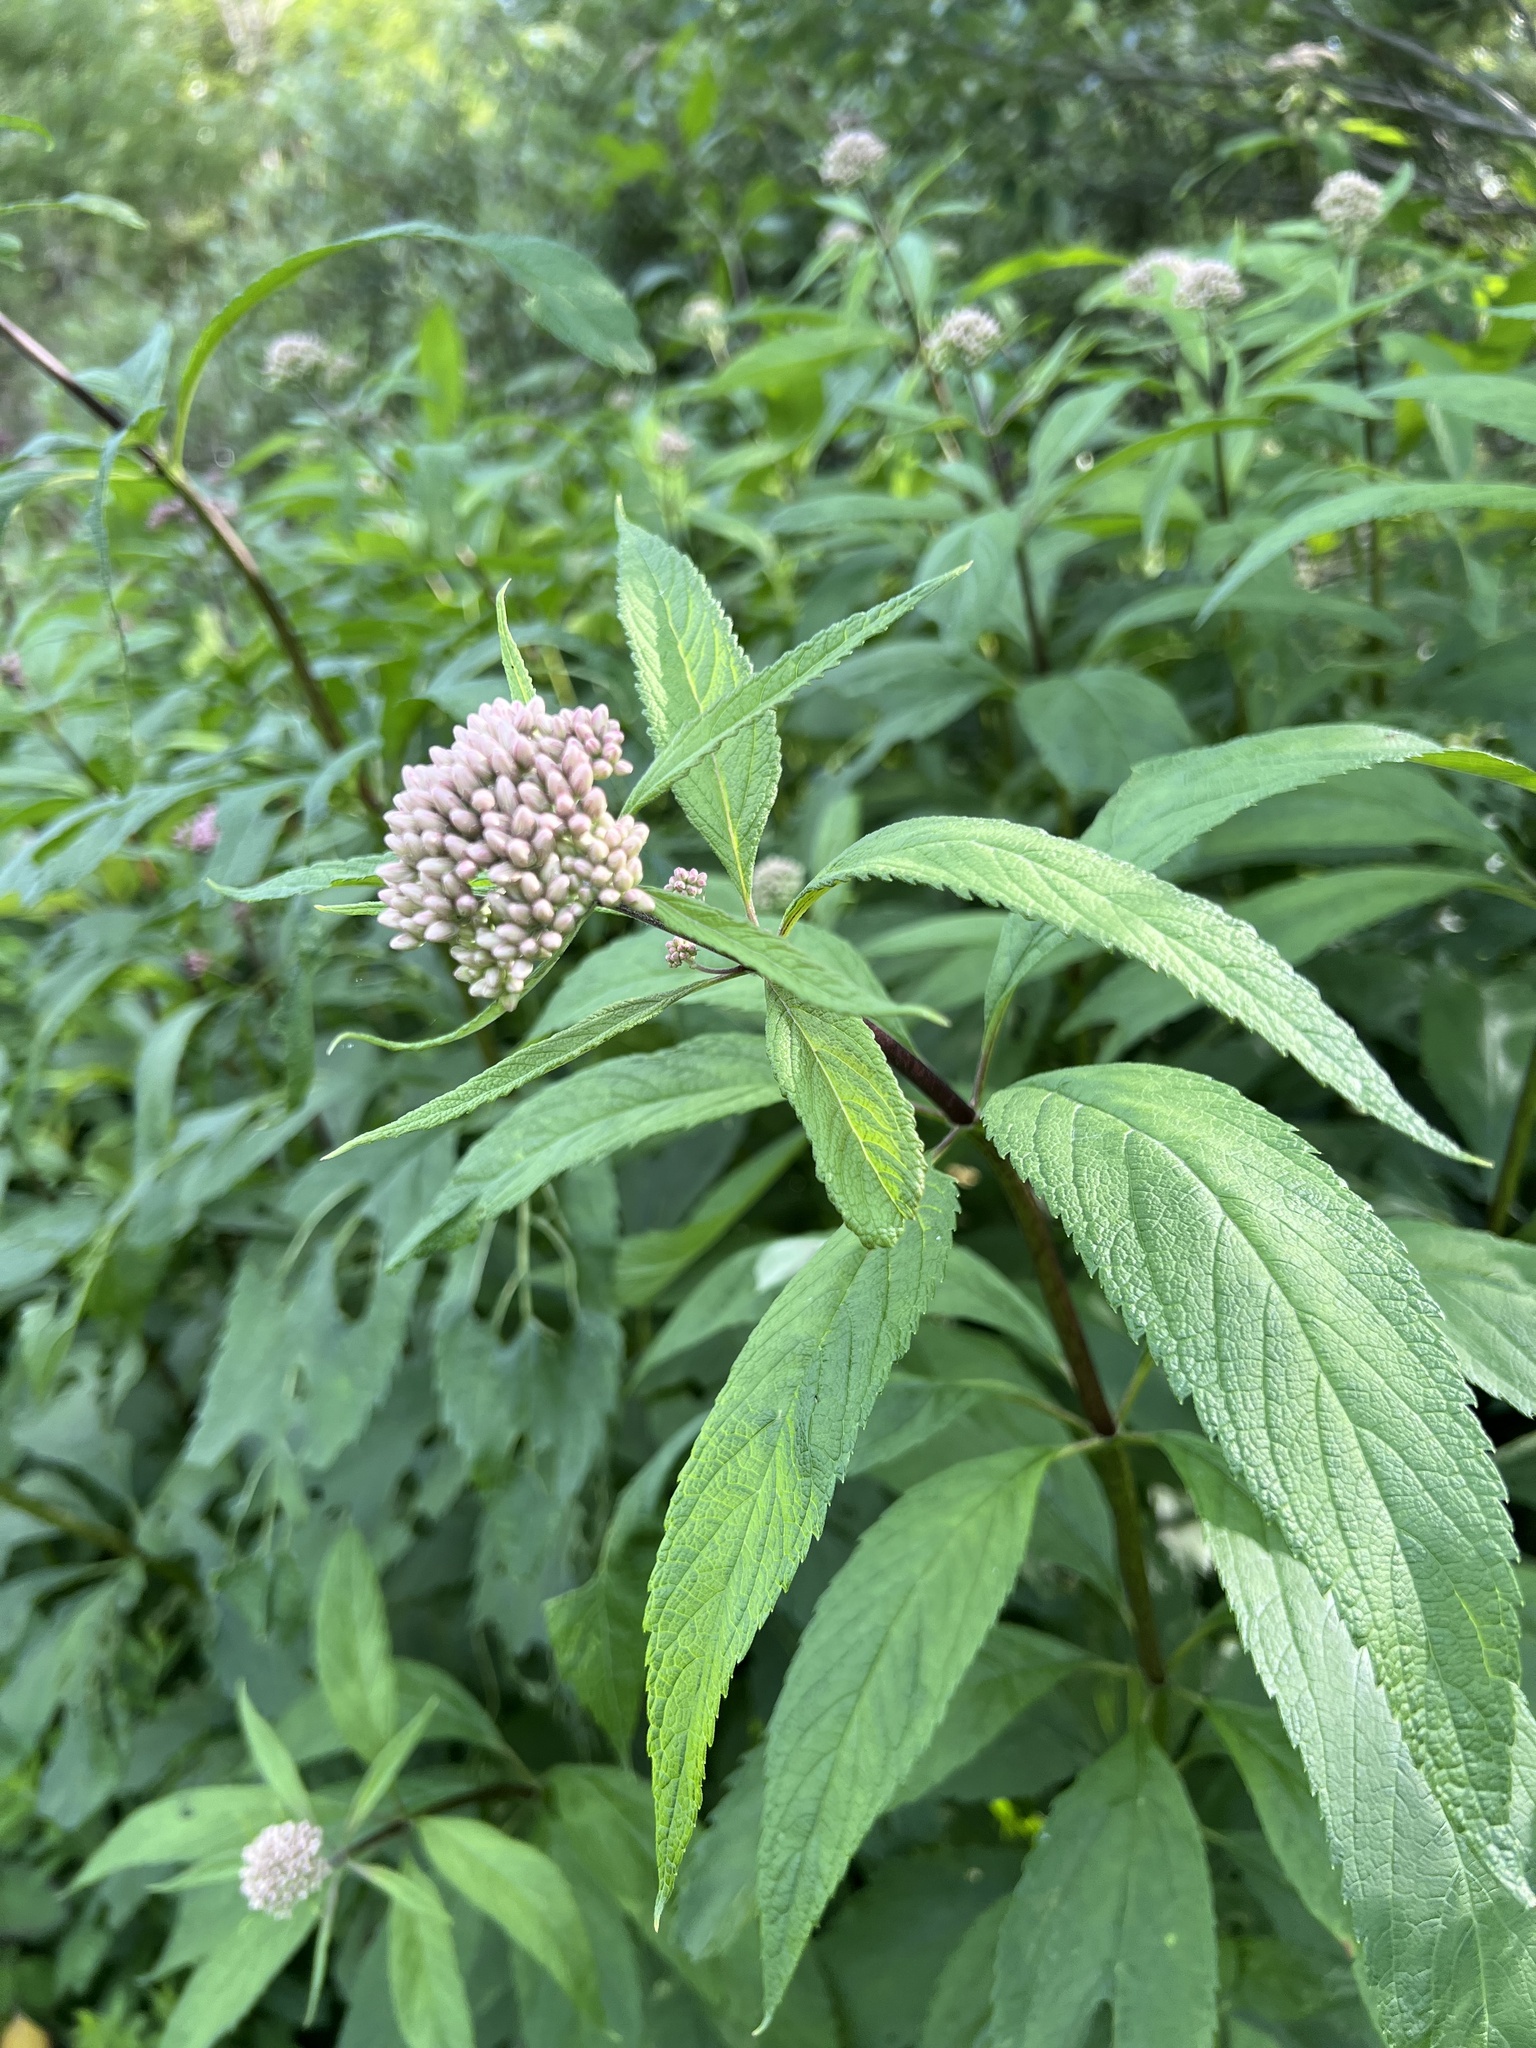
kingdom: Plantae
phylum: Tracheophyta
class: Magnoliopsida
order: Asterales
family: Asteraceae
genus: Eutrochium
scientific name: Eutrochium maculatum
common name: Spotted joe pye weed
